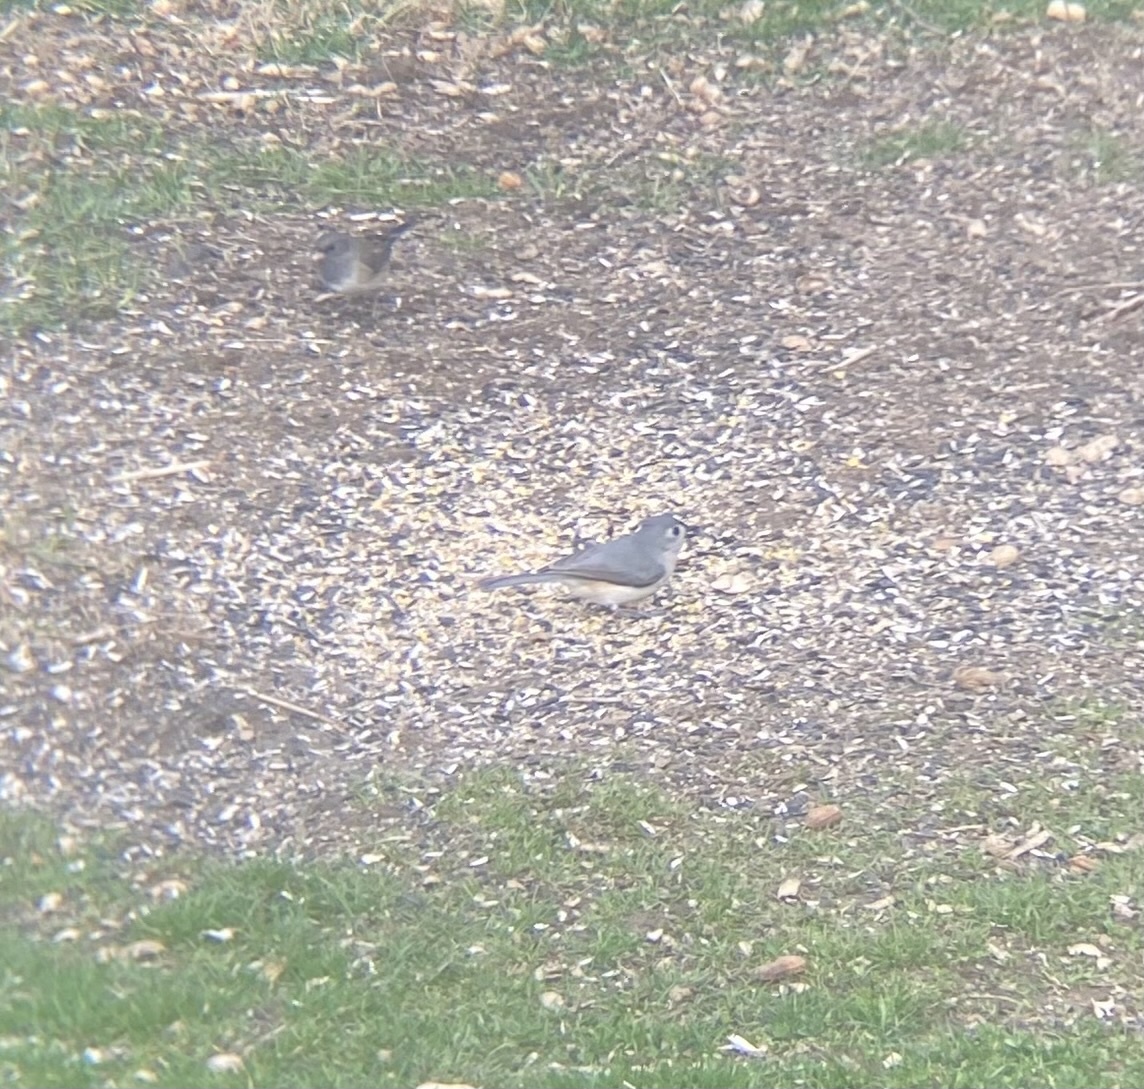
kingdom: Animalia
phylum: Chordata
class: Aves
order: Passeriformes
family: Paridae
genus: Baeolophus
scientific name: Baeolophus bicolor
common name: Tufted titmouse
